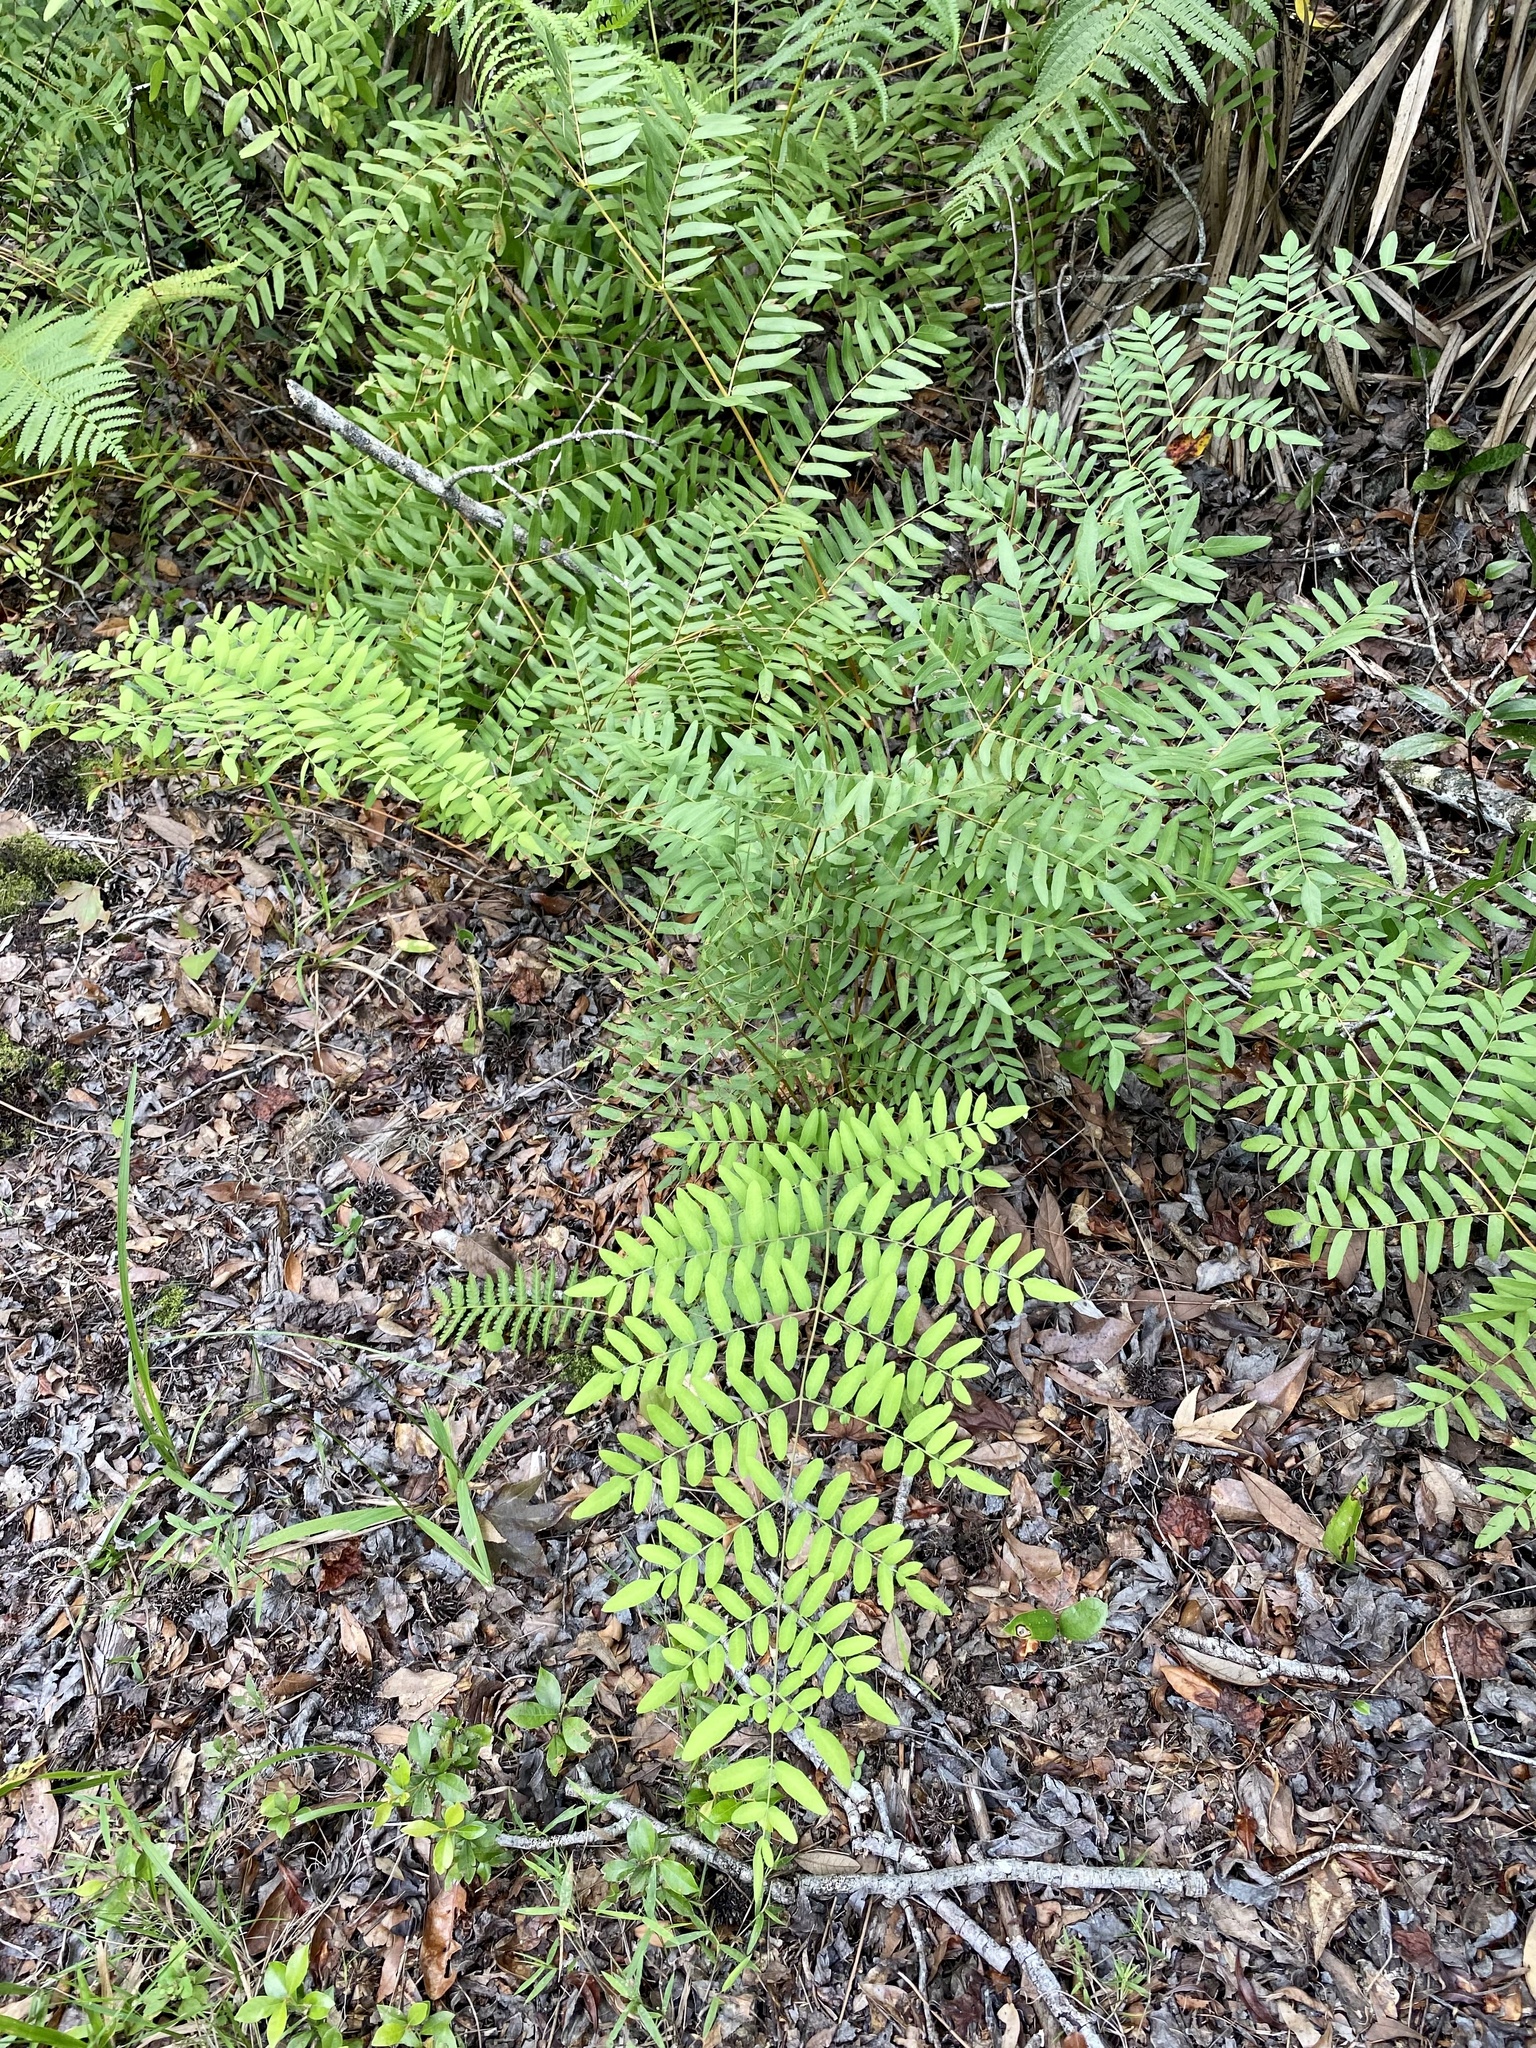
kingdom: Plantae
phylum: Tracheophyta
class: Polypodiopsida
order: Osmundales
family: Osmundaceae
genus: Osmunda
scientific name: Osmunda spectabilis
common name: American royal fern
